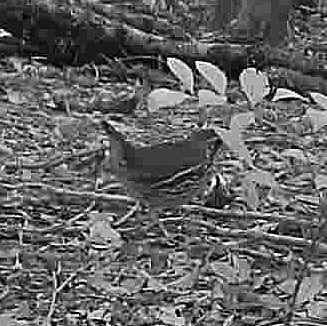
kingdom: Animalia
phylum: Chordata
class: Aves
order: Passeriformes
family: Formicariidae
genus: Chamaeza
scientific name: Chamaeza campanisona
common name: Short-tailed antthrush
